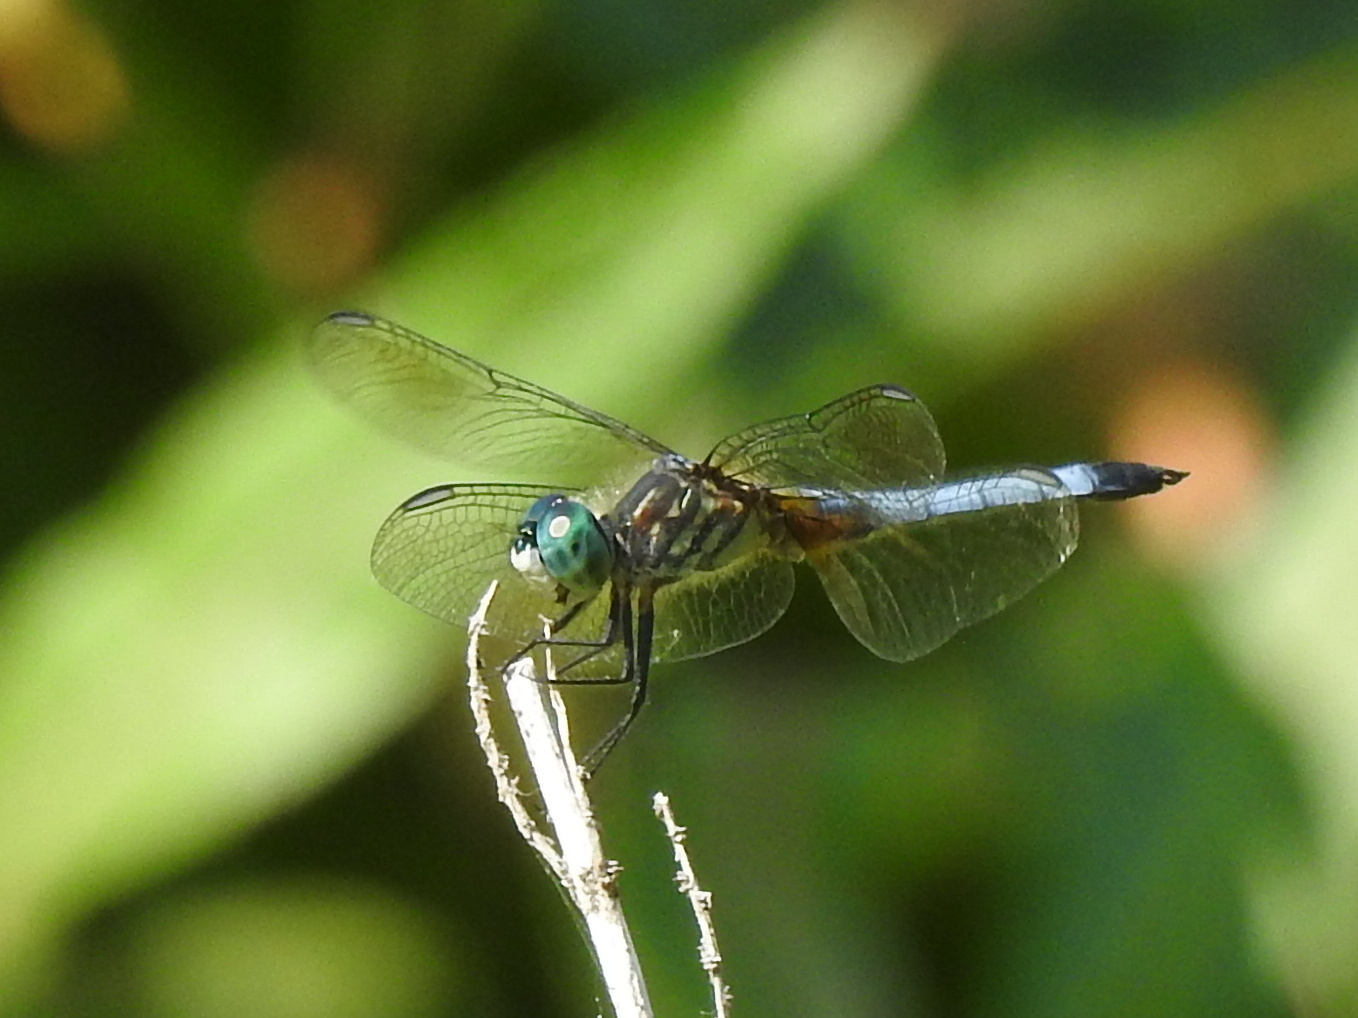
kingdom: Animalia
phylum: Arthropoda
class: Insecta
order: Odonata
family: Libellulidae
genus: Pachydiplax
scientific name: Pachydiplax longipennis
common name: Blue dasher
